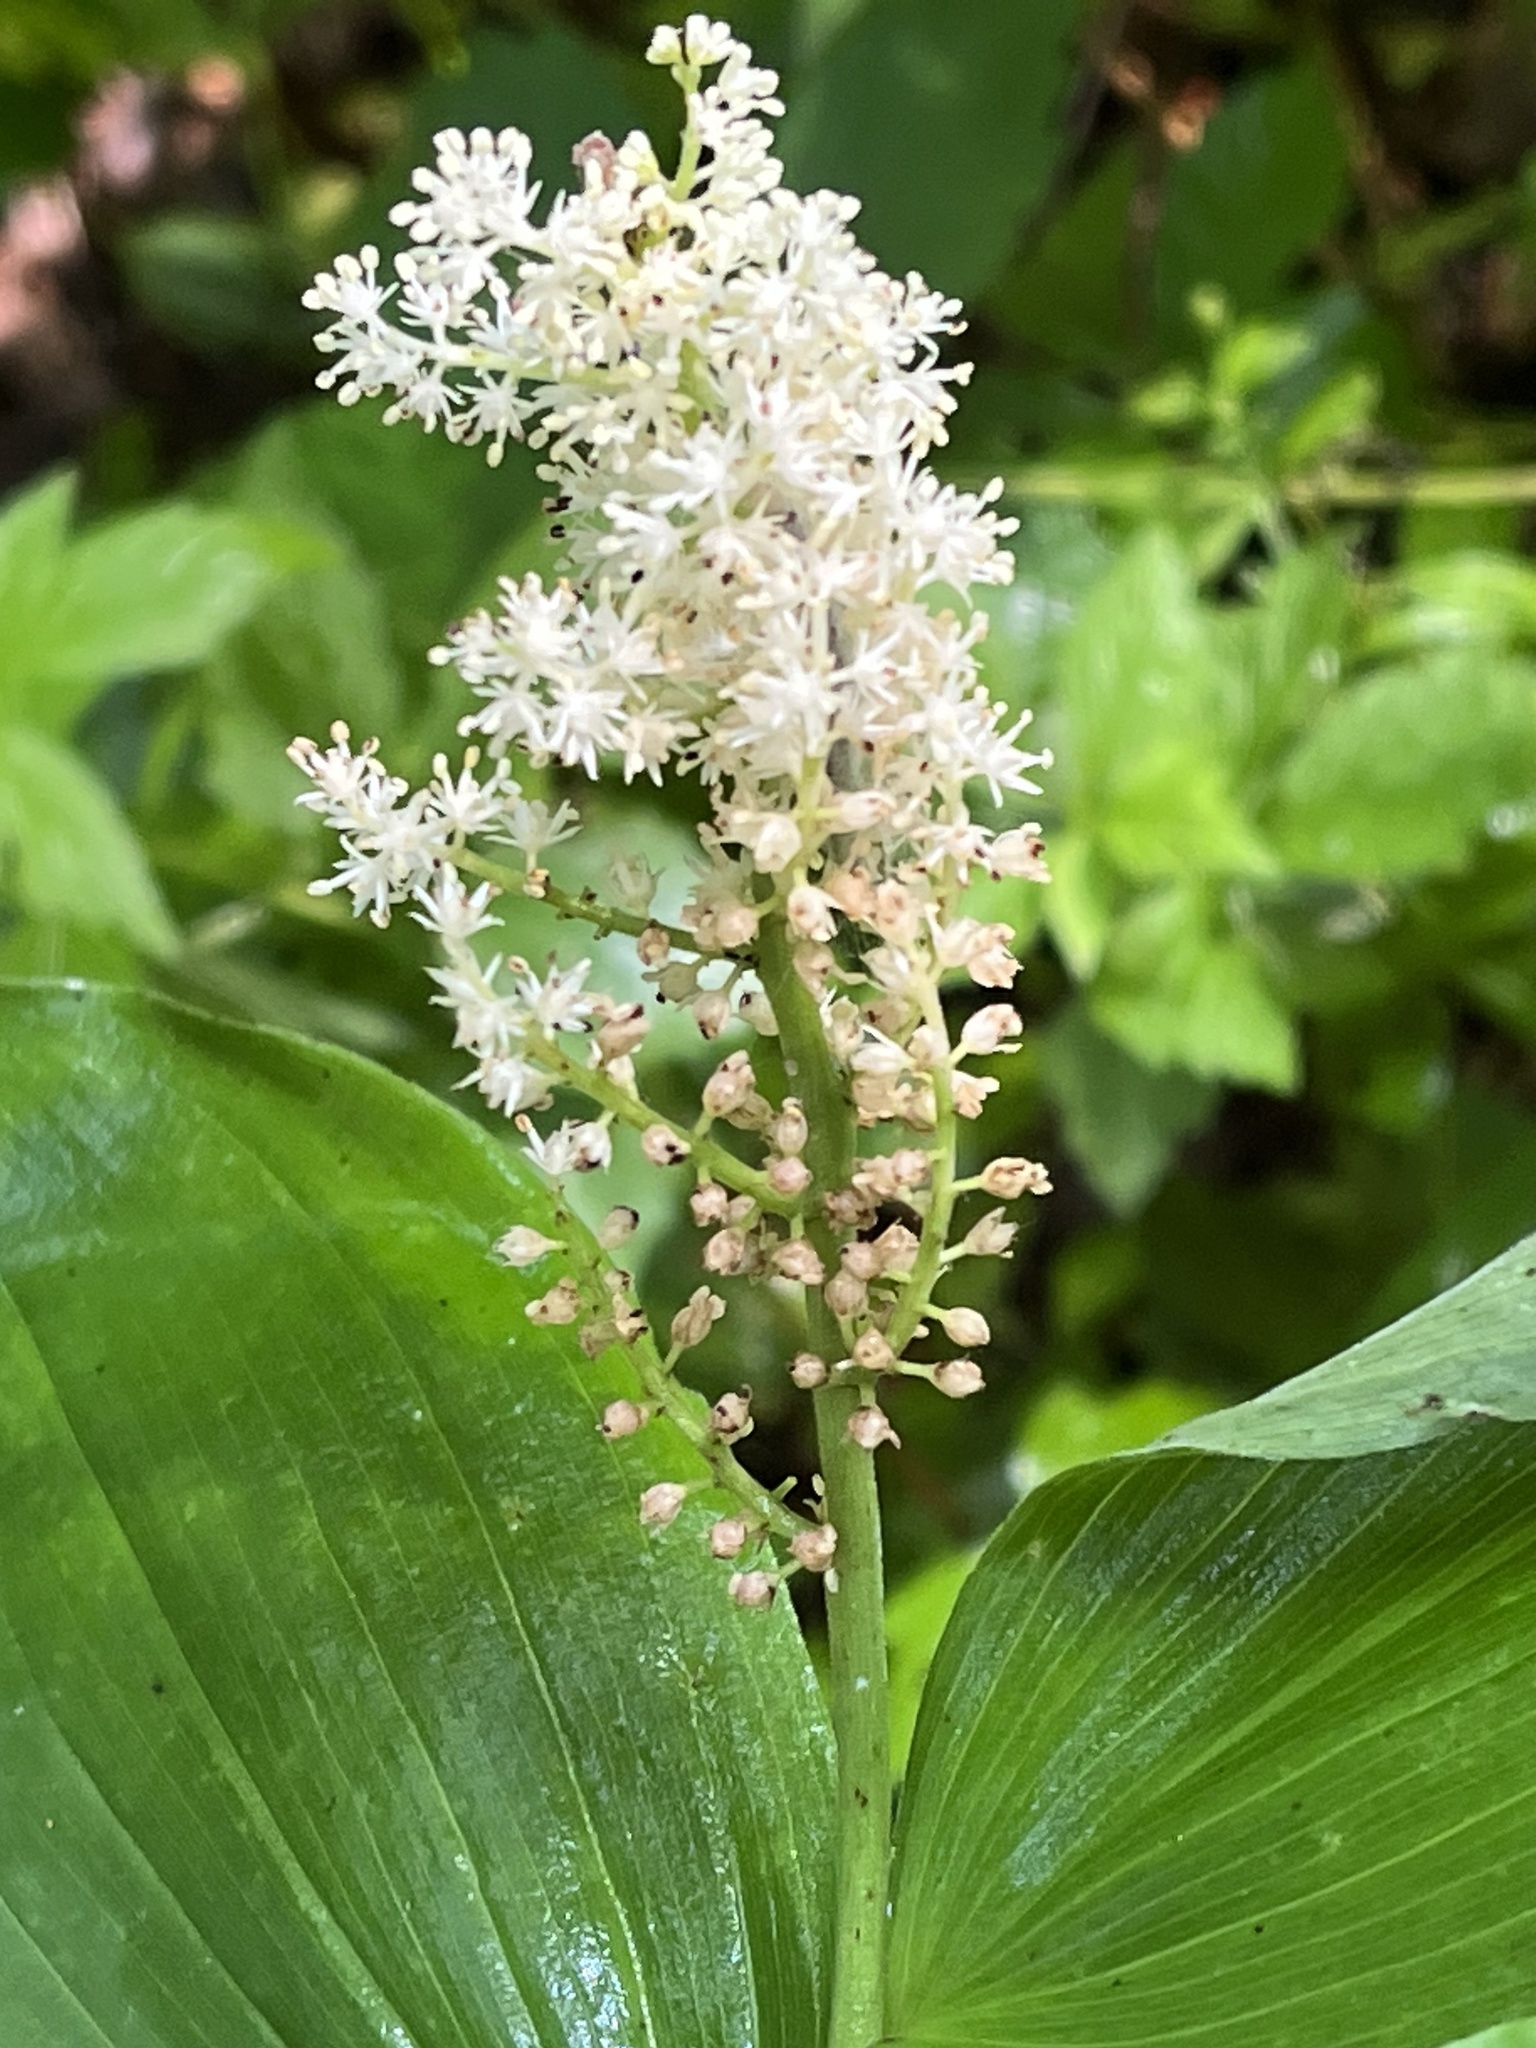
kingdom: Plantae
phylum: Tracheophyta
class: Liliopsida
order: Asparagales
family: Asparagaceae
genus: Maianthemum
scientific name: Maianthemum racemosum
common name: False spikenard
